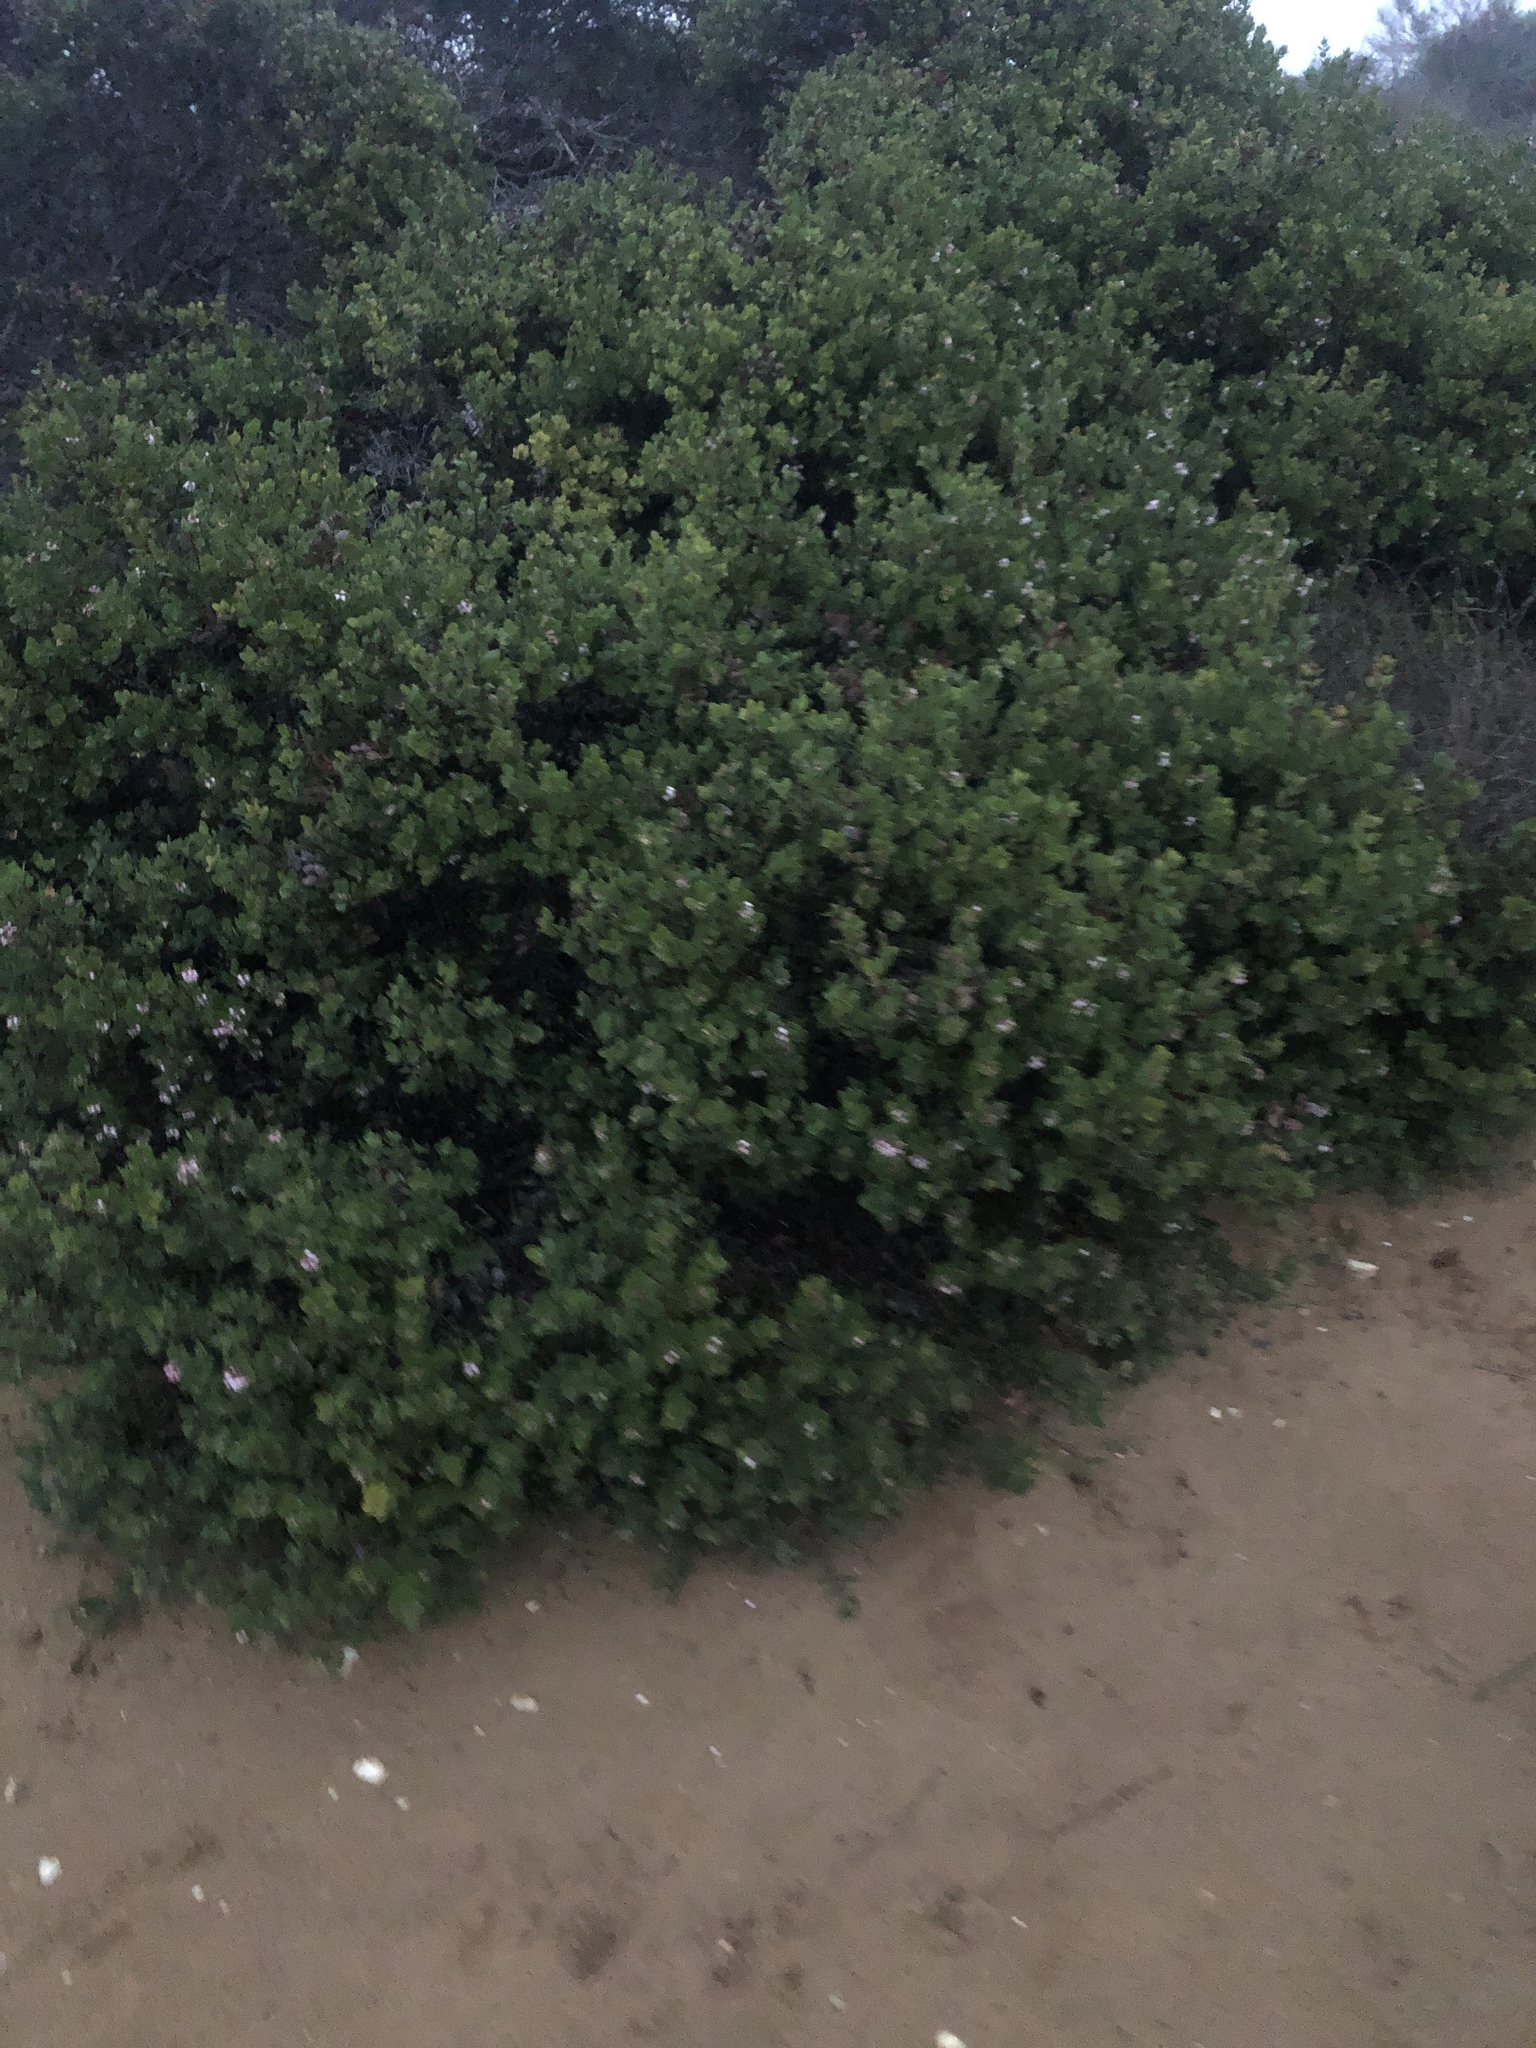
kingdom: Plantae
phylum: Tracheophyta
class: Magnoliopsida
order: Ericales
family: Ericaceae
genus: Arctostaphylos
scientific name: Arctostaphylos morroensis
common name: Morro manzanita
